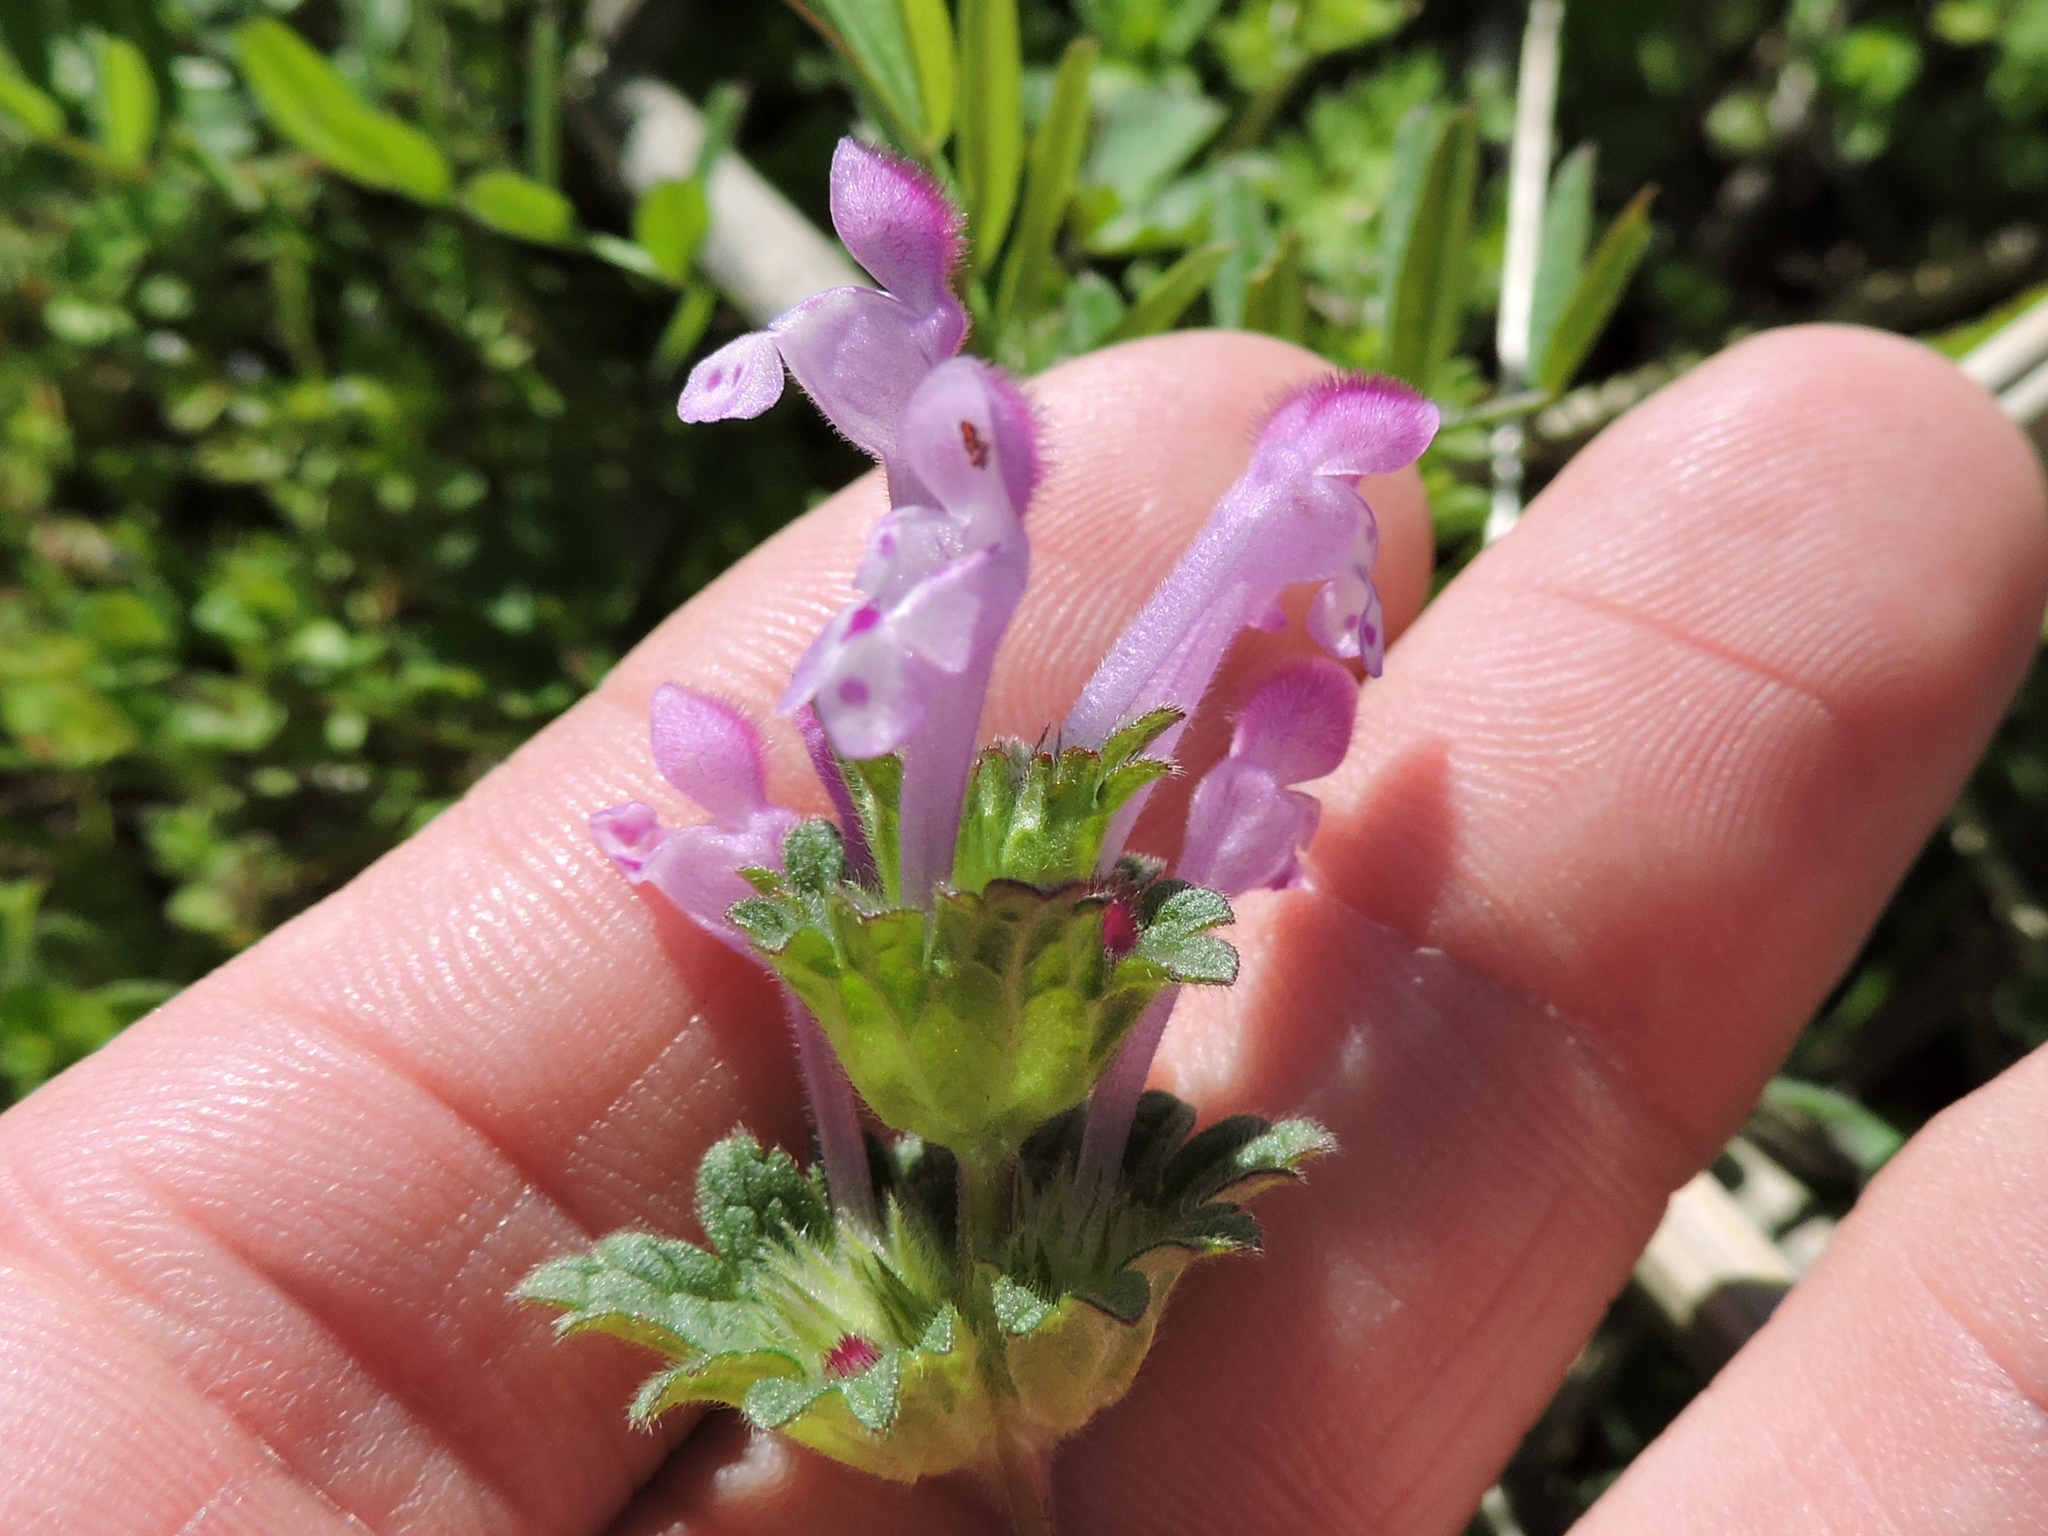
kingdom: Plantae
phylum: Tracheophyta
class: Magnoliopsida
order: Lamiales
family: Lamiaceae
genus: Lamium
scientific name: Lamium amplexicaule
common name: Henbit dead-nettle
